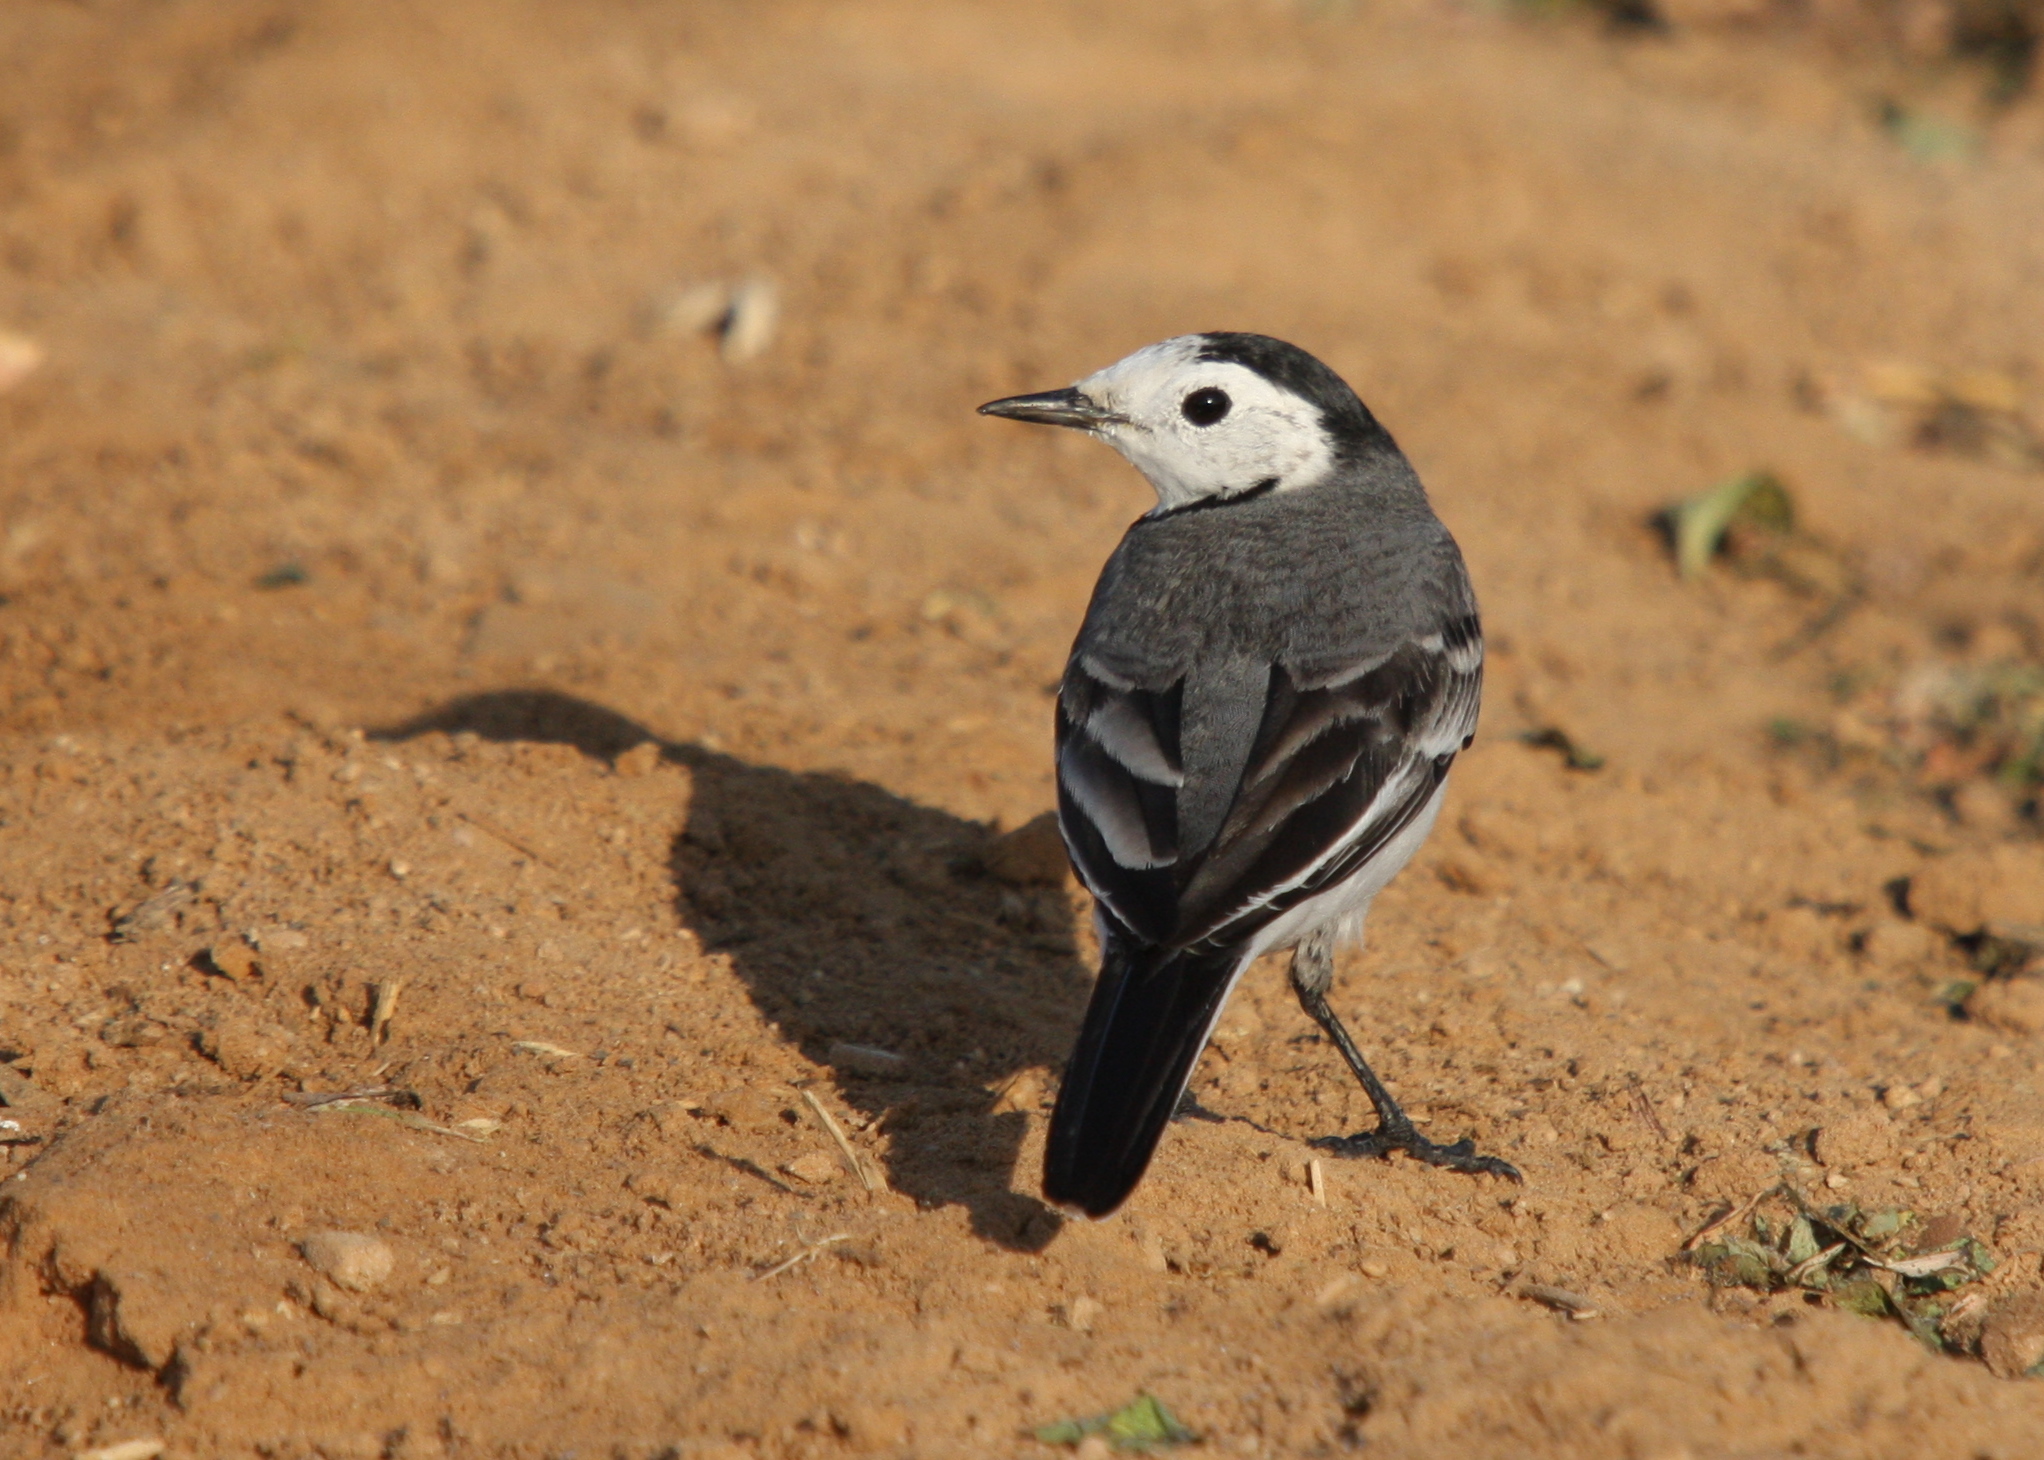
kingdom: Animalia
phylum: Chordata
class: Aves
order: Passeriformes
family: Motacillidae
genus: Motacilla
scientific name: Motacilla alba
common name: White wagtail
